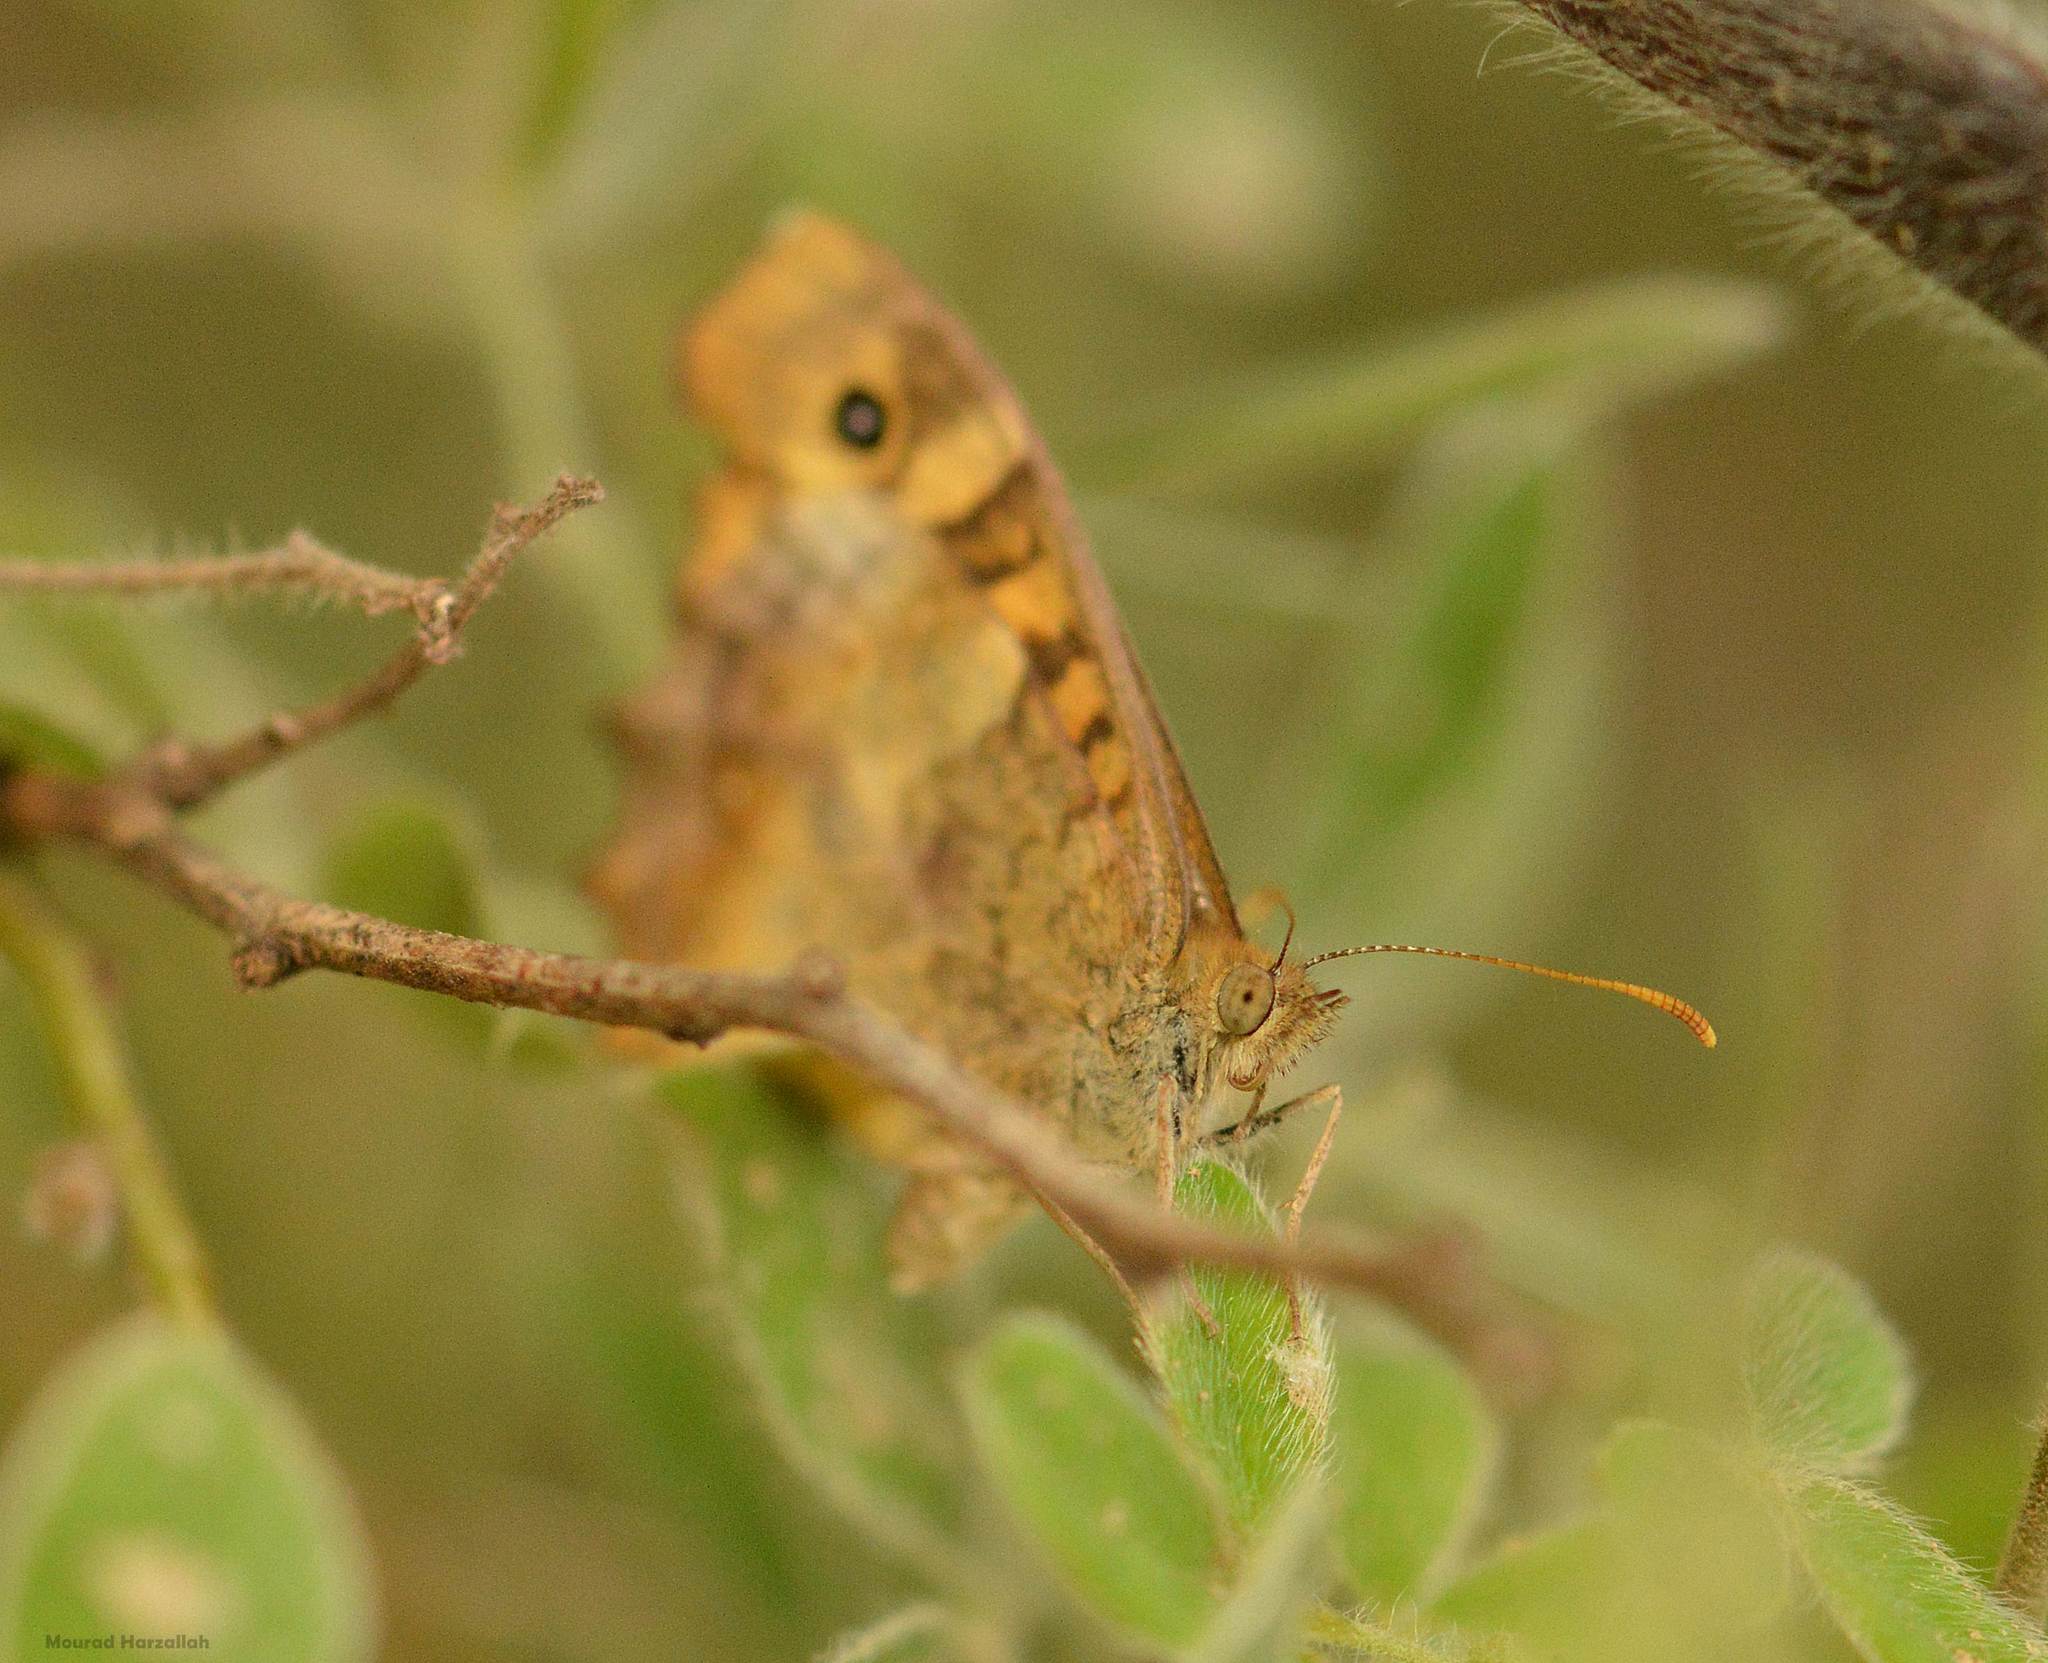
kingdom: Animalia
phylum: Arthropoda
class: Insecta
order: Lepidoptera
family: Nymphalidae
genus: Pararge
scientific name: Pararge aegeria
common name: Speckled wood
